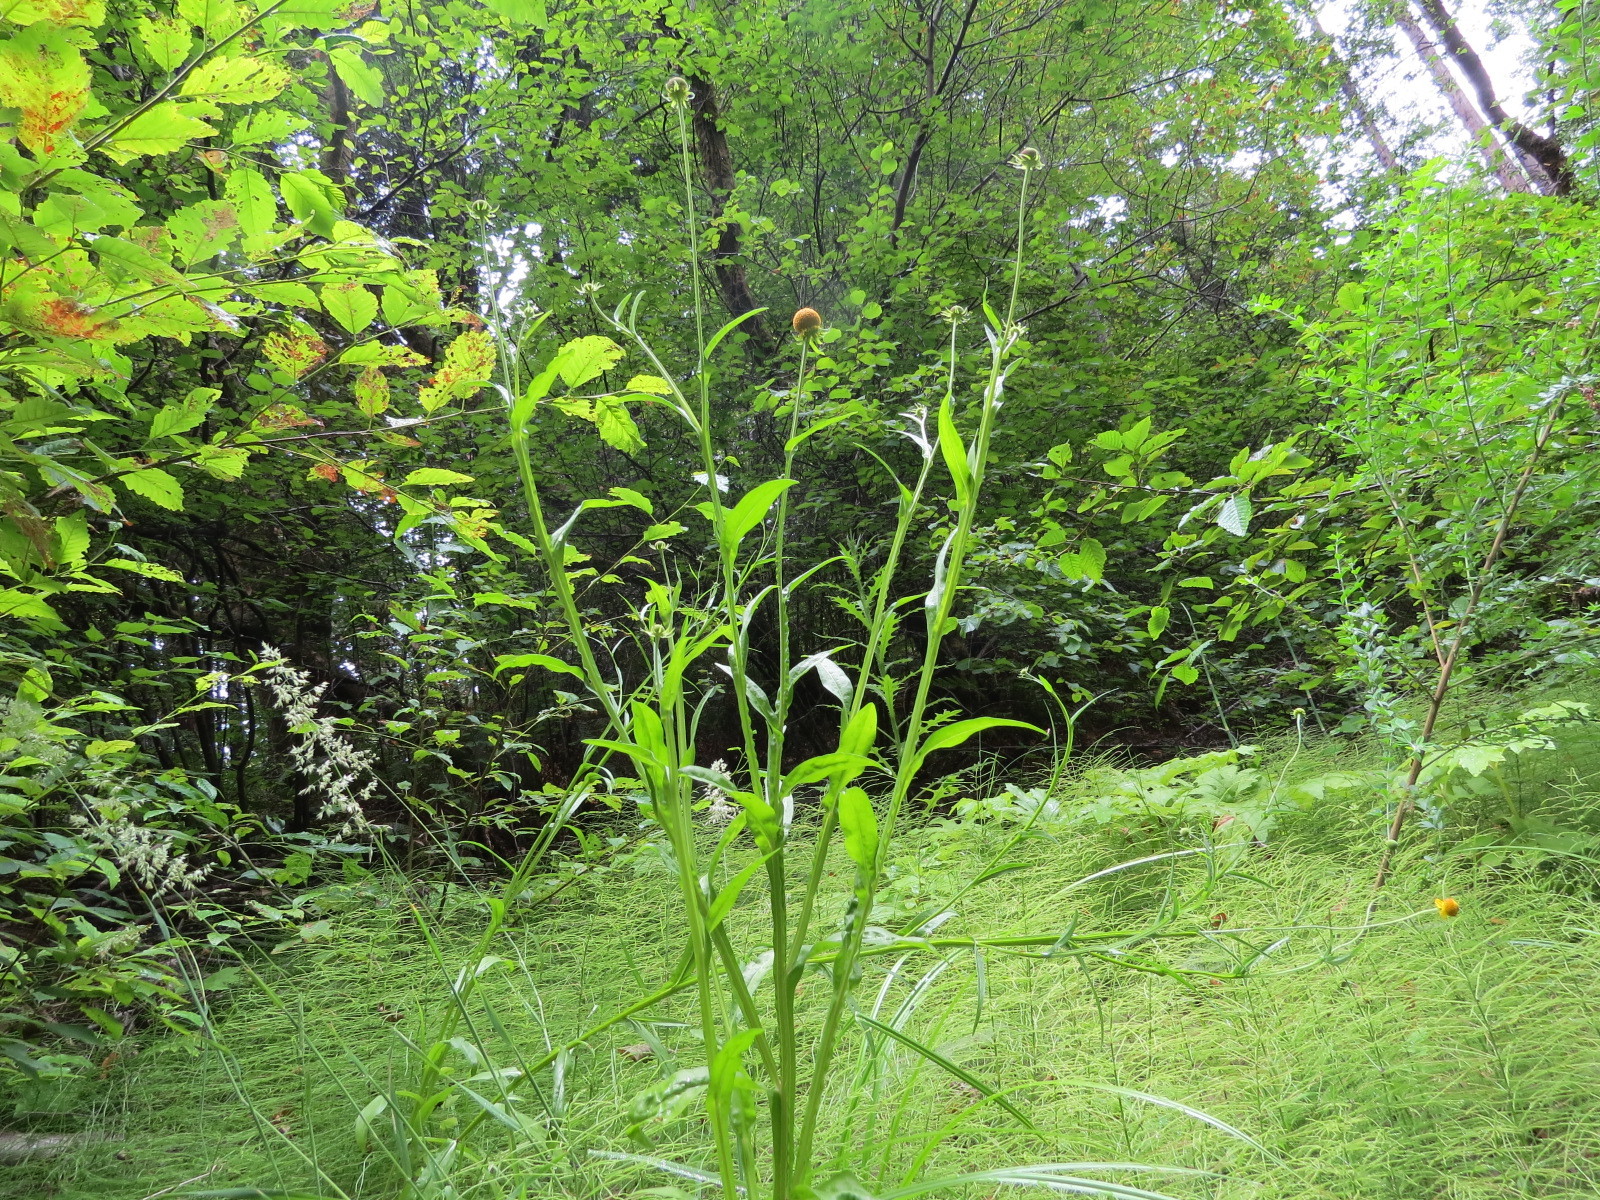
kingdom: Plantae
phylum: Tracheophyta
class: Magnoliopsida
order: Asterales
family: Asteraceae
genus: Helenium
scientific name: Helenium puberulum
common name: Sneezewort
